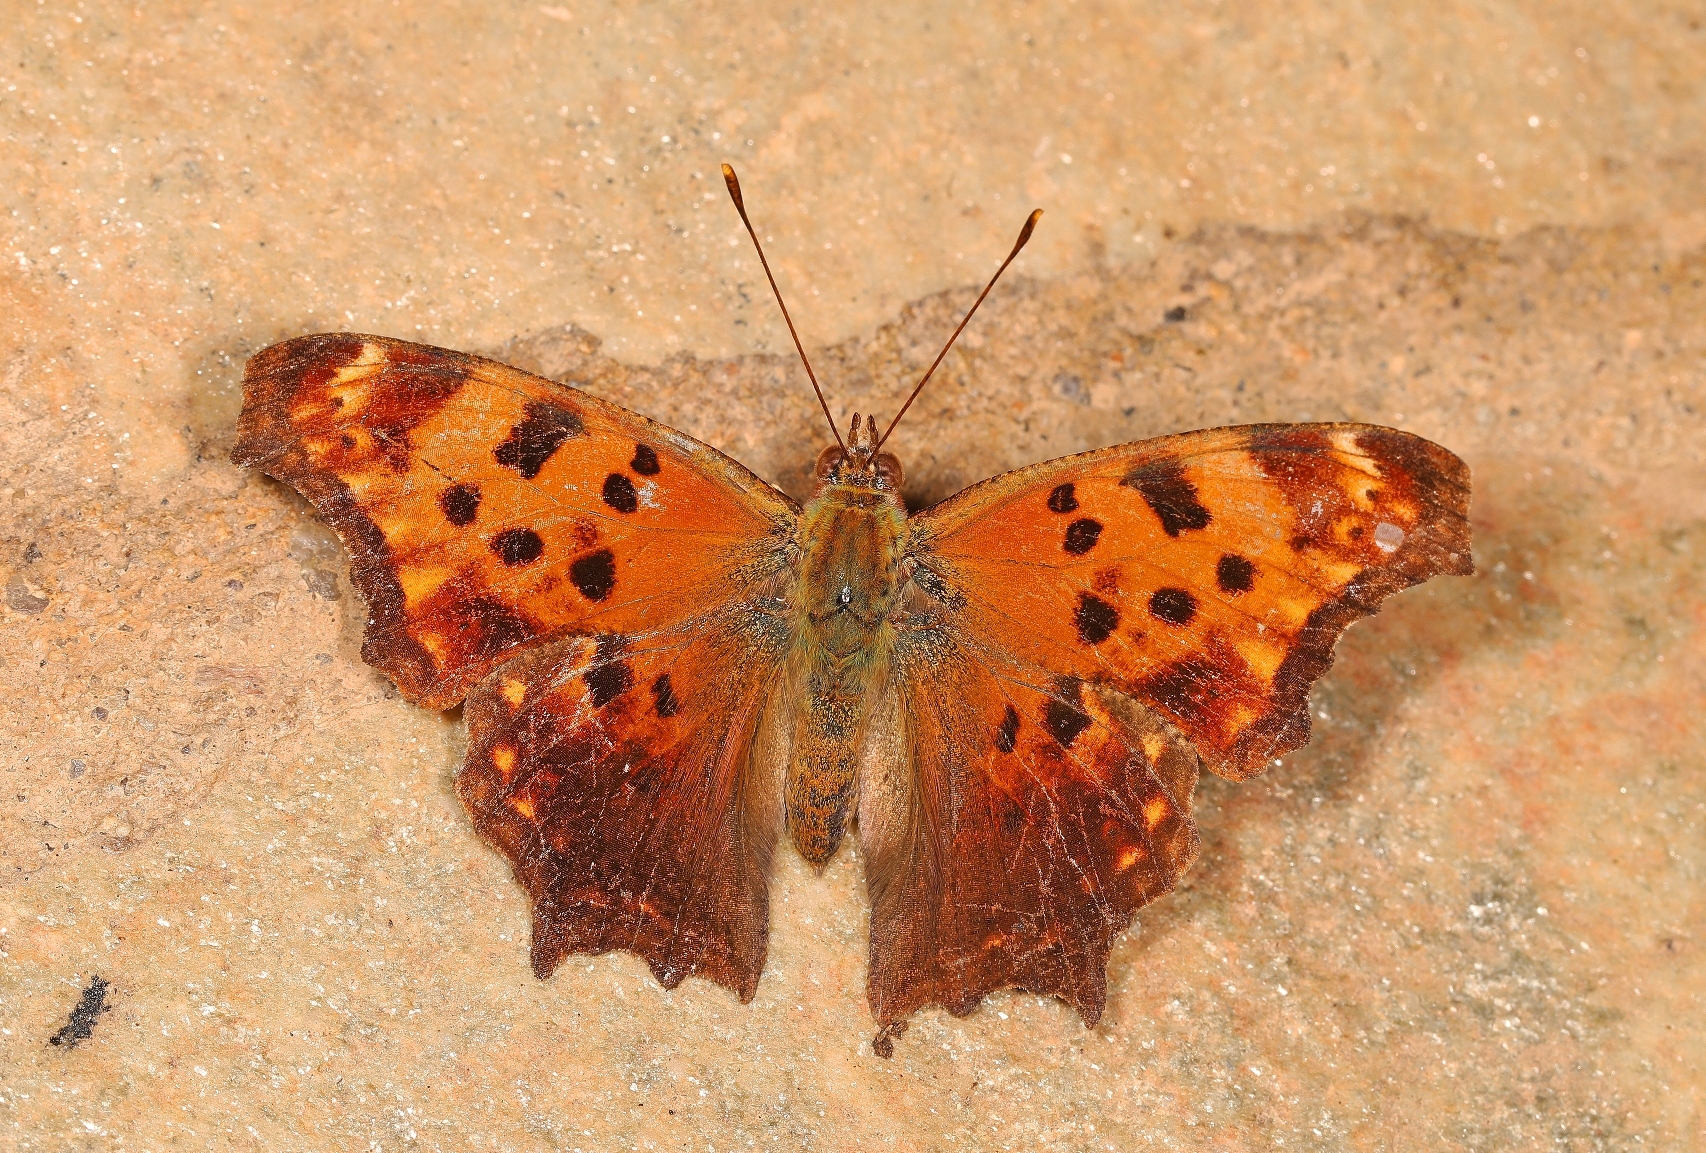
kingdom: Animalia
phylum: Arthropoda
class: Insecta
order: Lepidoptera
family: Nymphalidae
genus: Polygonia
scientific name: Polygonia comma
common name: Eastern comma
